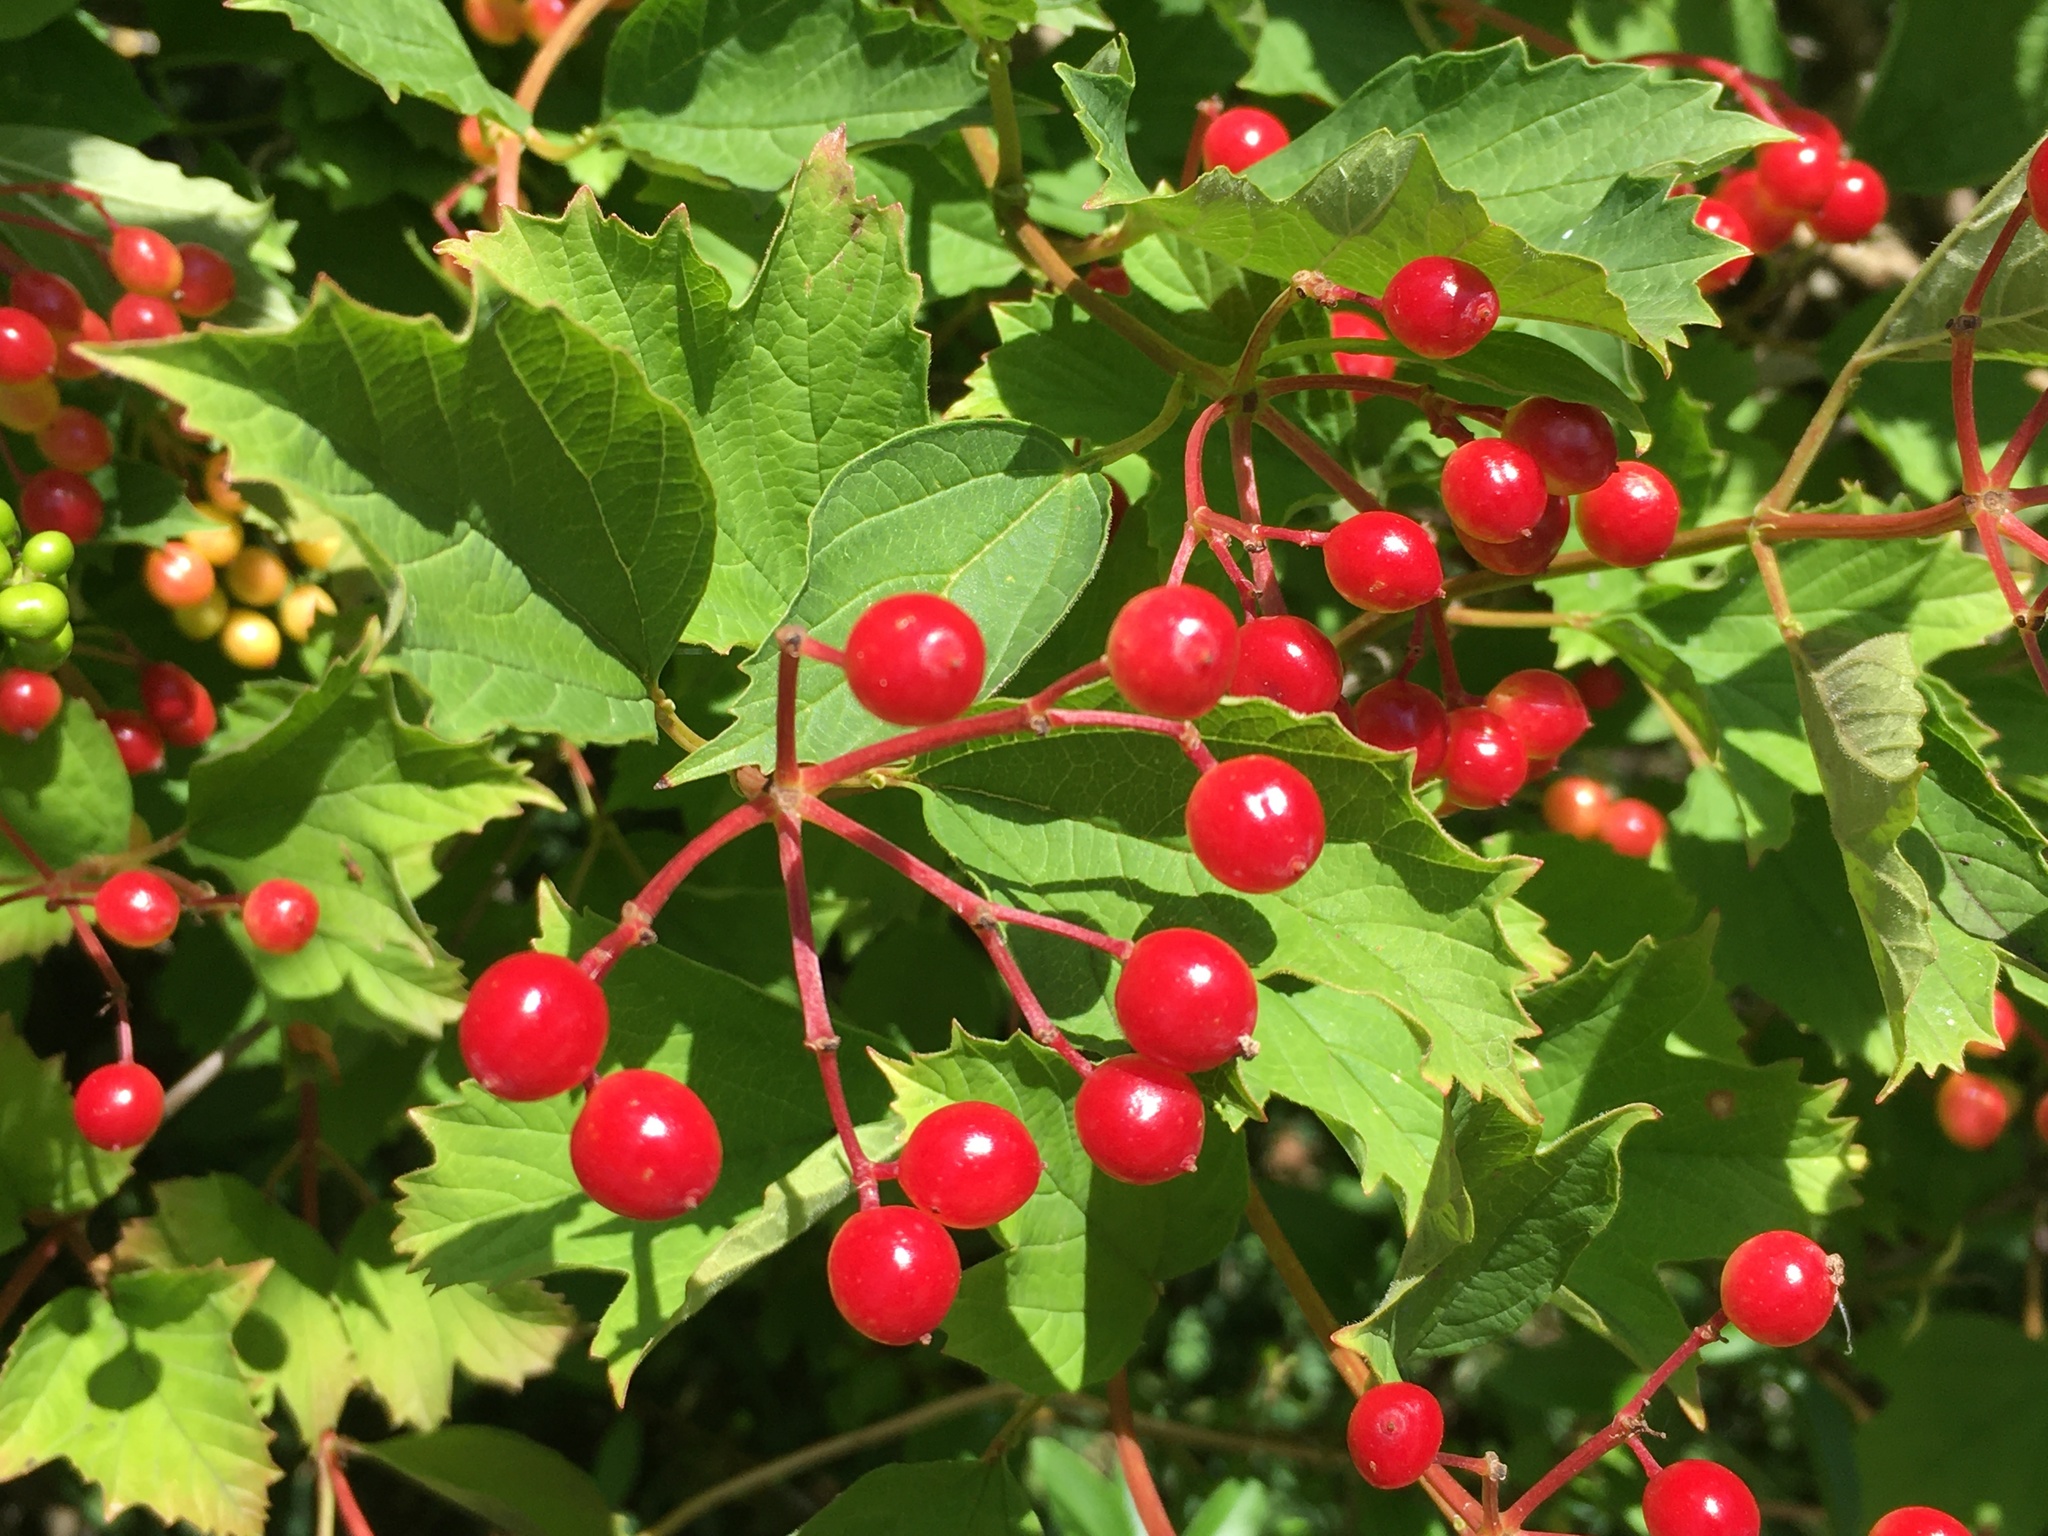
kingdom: Plantae
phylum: Tracheophyta
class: Magnoliopsida
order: Dipsacales
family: Viburnaceae
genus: Viburnum
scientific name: Viburnum opulus
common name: Guelder-rose
